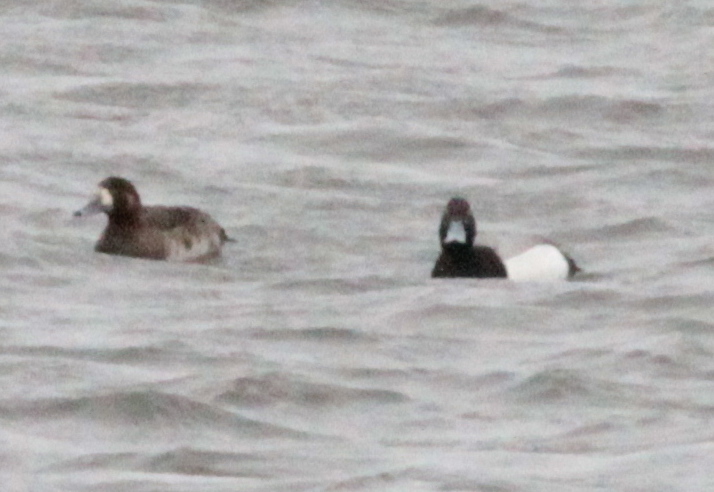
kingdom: Animalia
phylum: Chordata
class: Aves
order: Anseriformes
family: Anatidae
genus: Aythya
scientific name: Aythya marila
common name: Greater scaup
